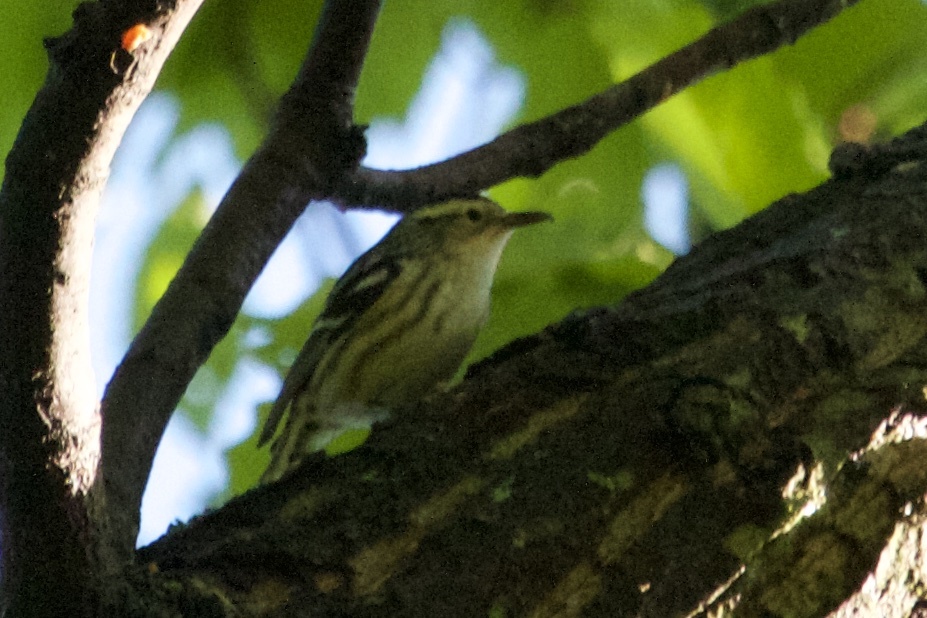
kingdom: Animalia
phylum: Chordata
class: Aves
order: Passeriformes
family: Parulidae
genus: Mniotilta
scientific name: Mniotilta varia
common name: Black-and-white warbler
